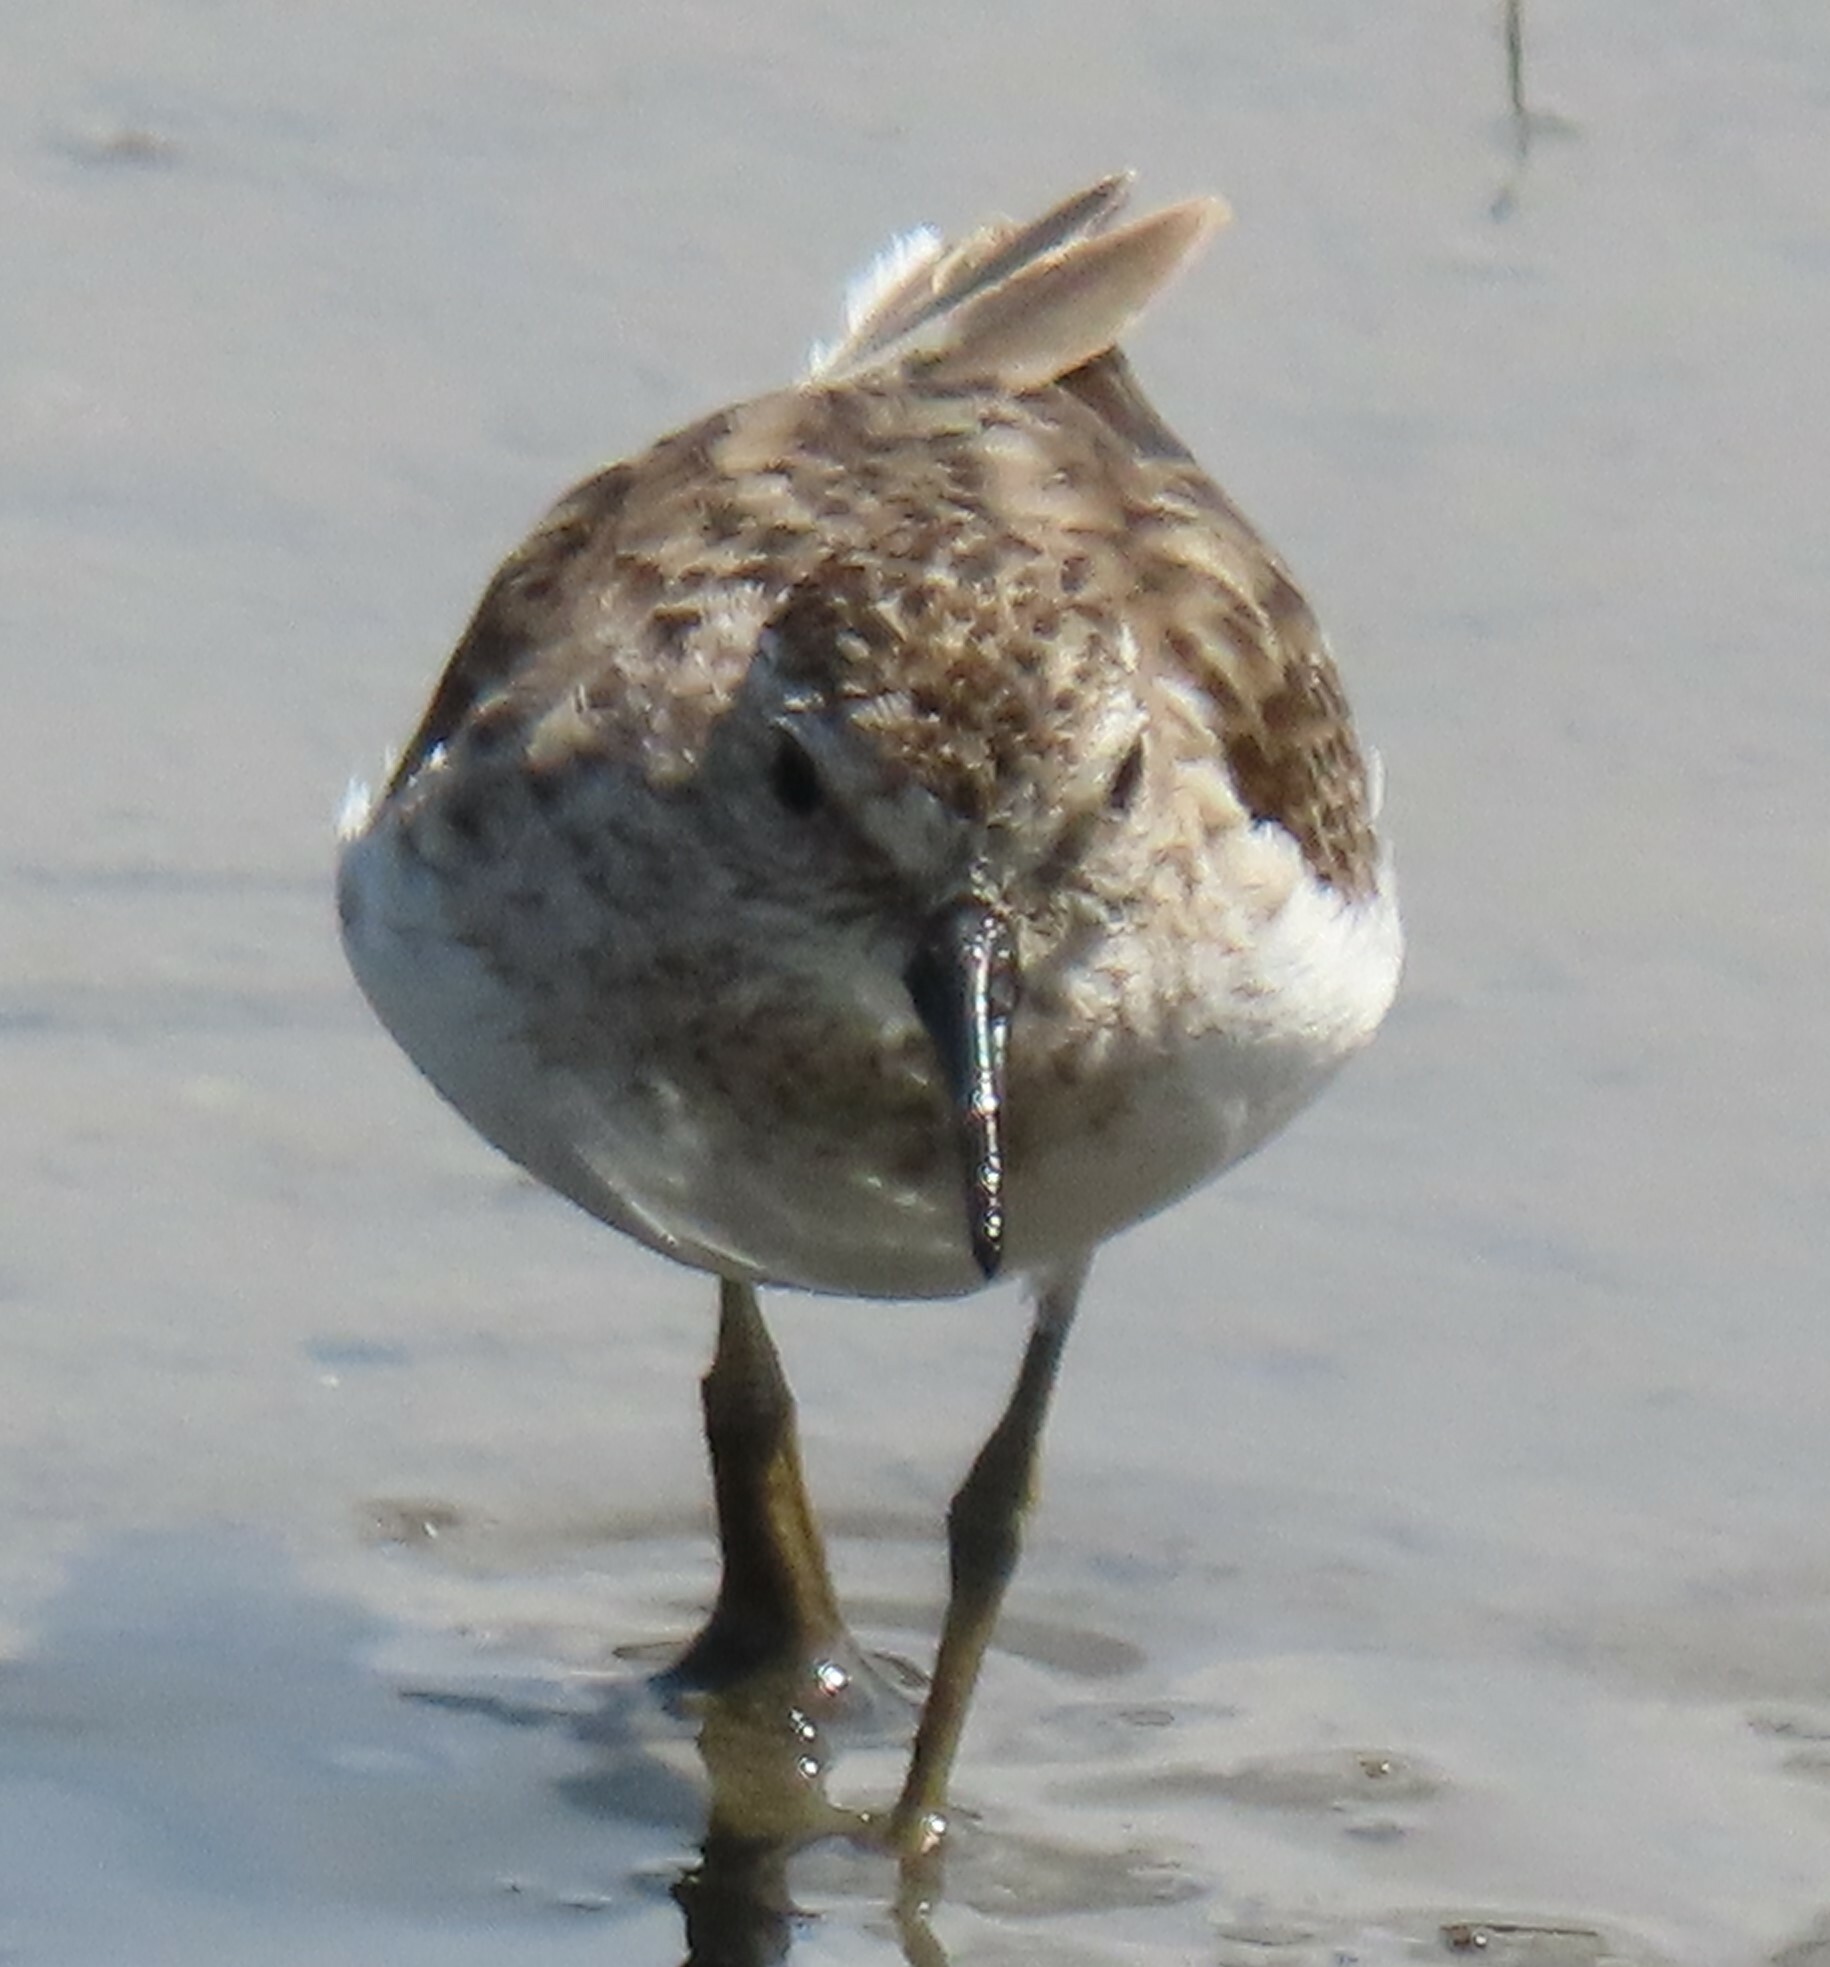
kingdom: Animalia
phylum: Chordata
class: Aves
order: Charadriiformes
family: Scolopacidae
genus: Calidris
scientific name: Calidris minutilla
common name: Least sandpiper
